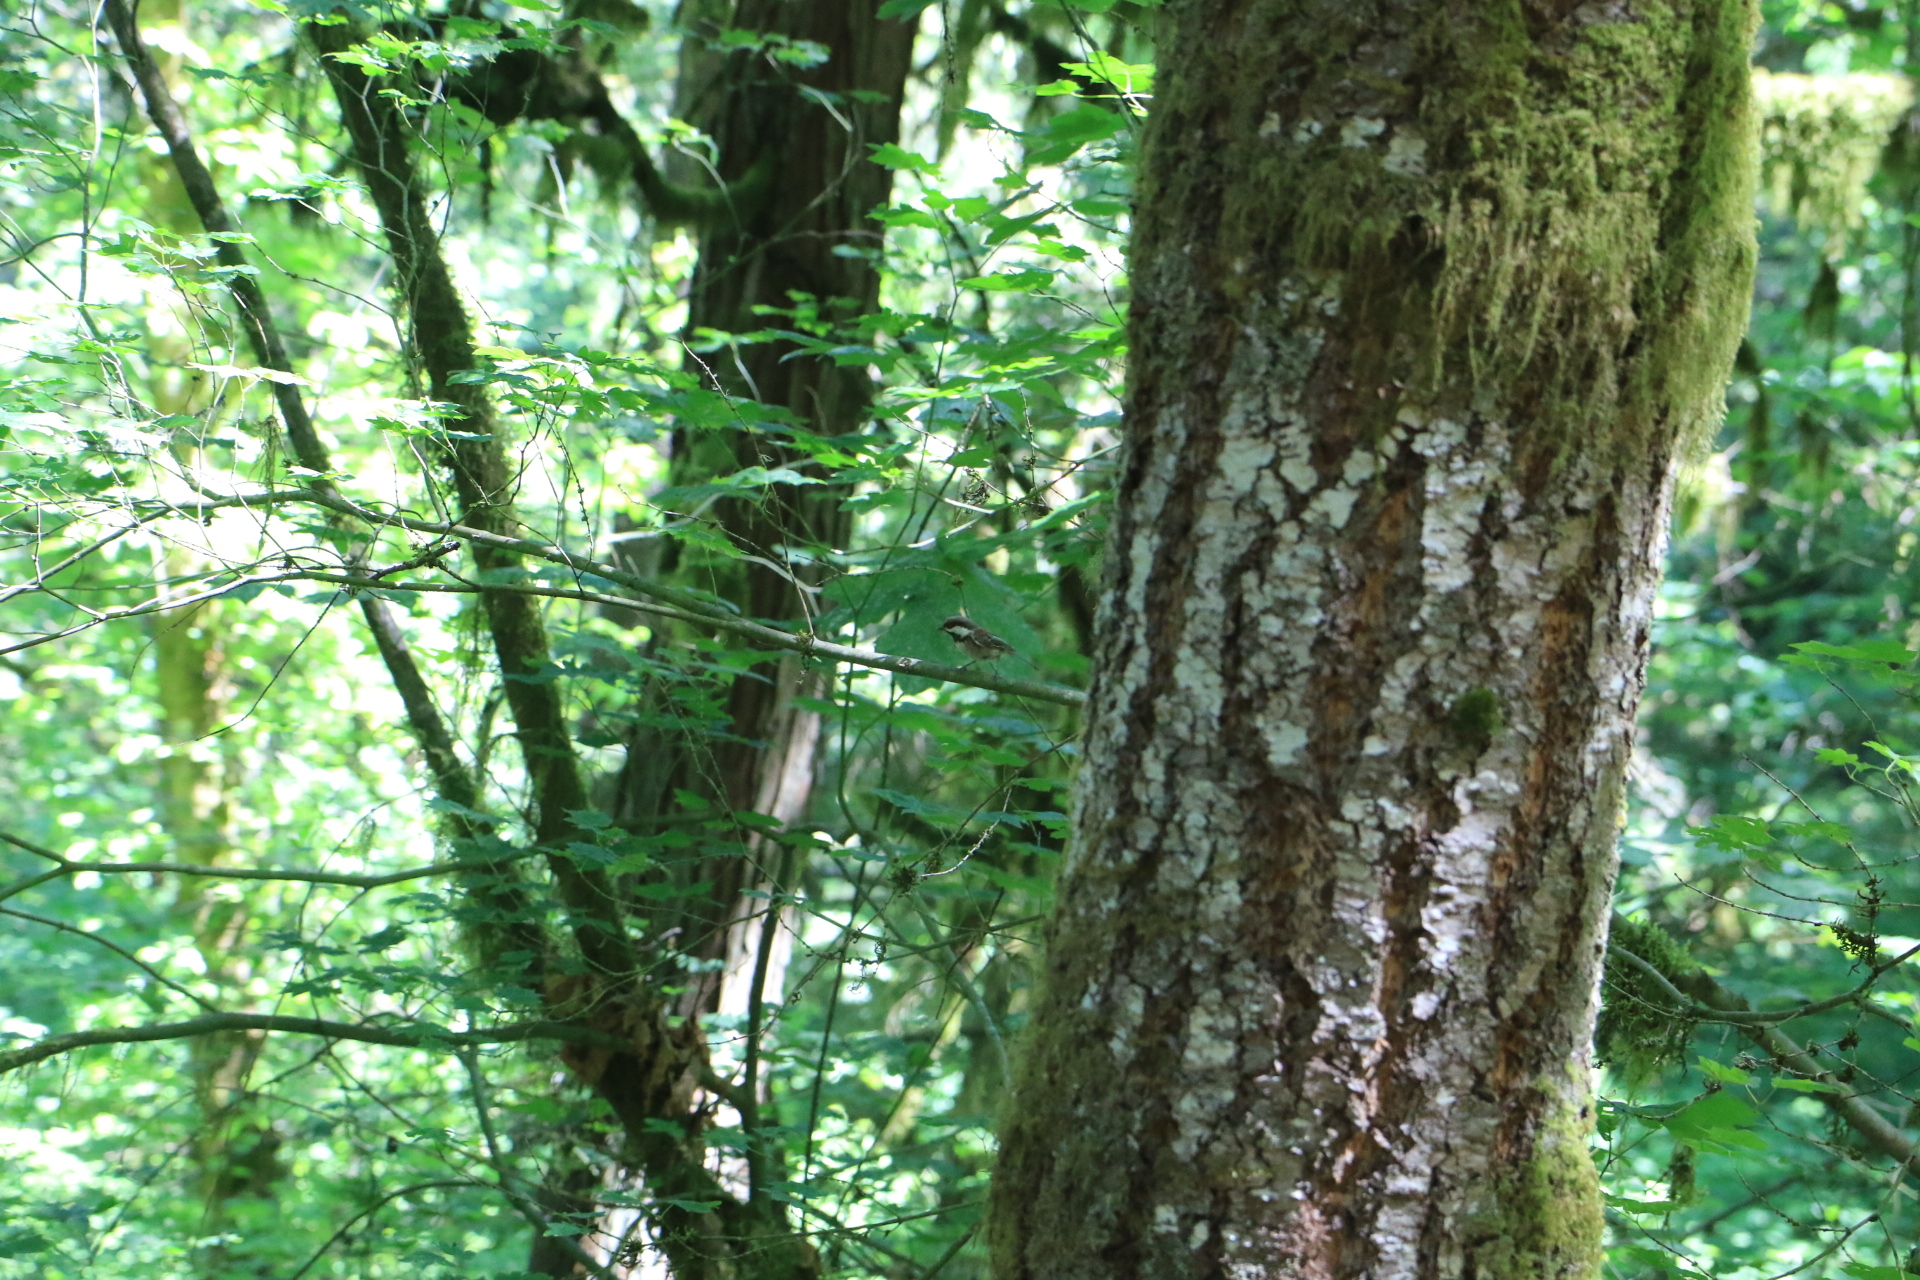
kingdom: Animalia
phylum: Chordata
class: Aves
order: Passeriformes
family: Paridae
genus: Poecile
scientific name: Poecile rufescens
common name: Chestnut-backed chickadee
